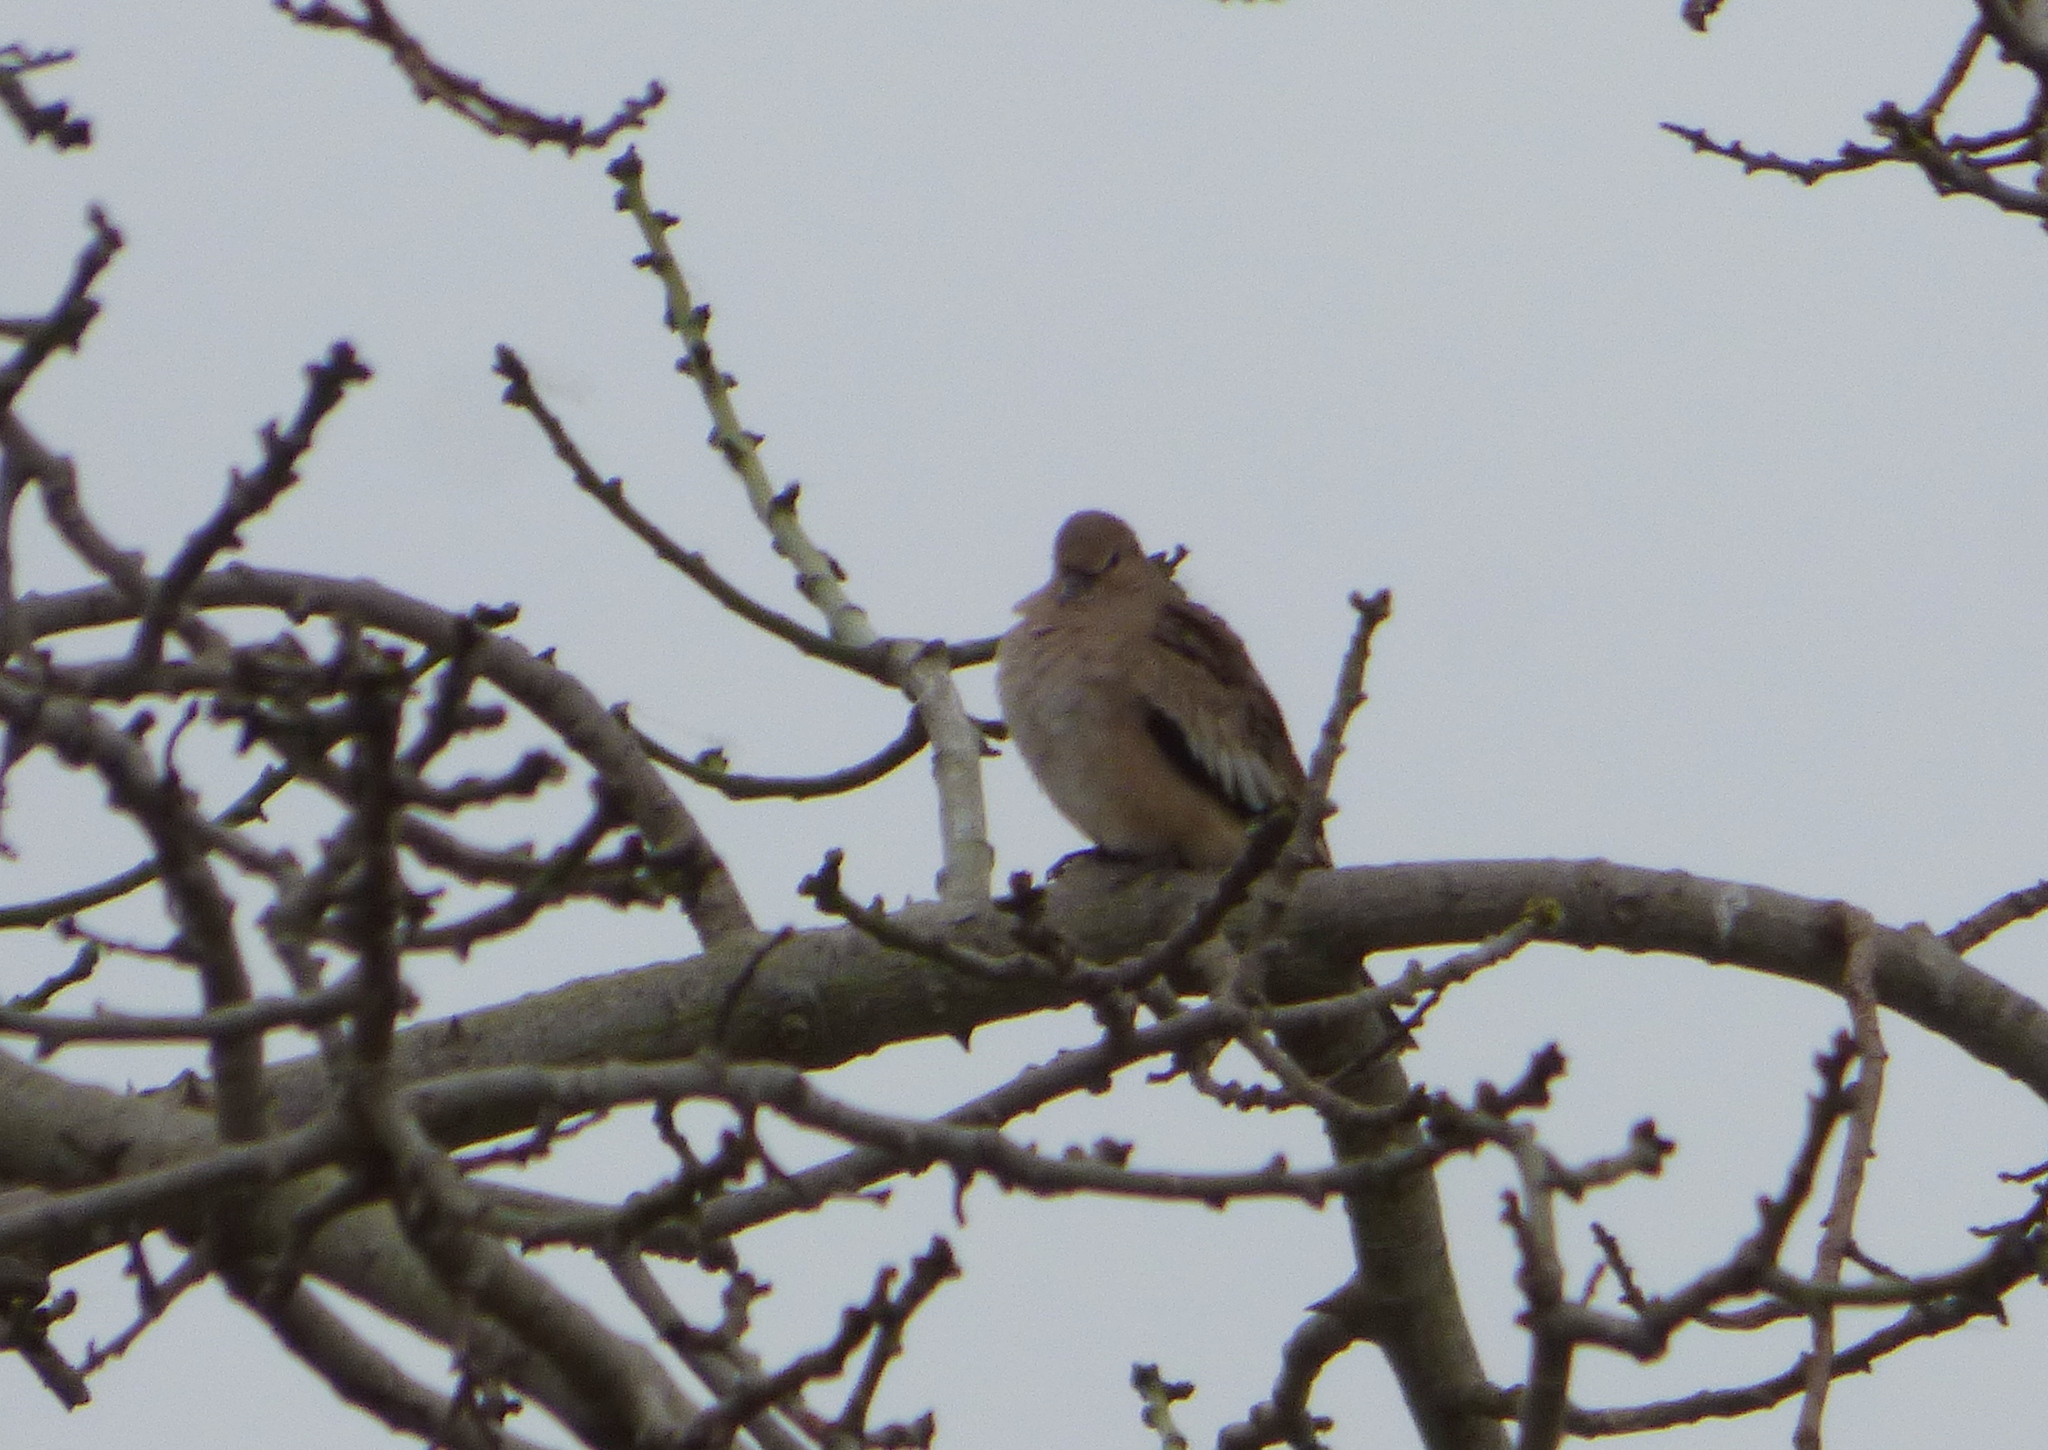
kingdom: Animalia
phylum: Chordata
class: Aves
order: Columbiformes
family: Columbidae
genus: Columbina
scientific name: Columbina picui
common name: Picui ground dove
